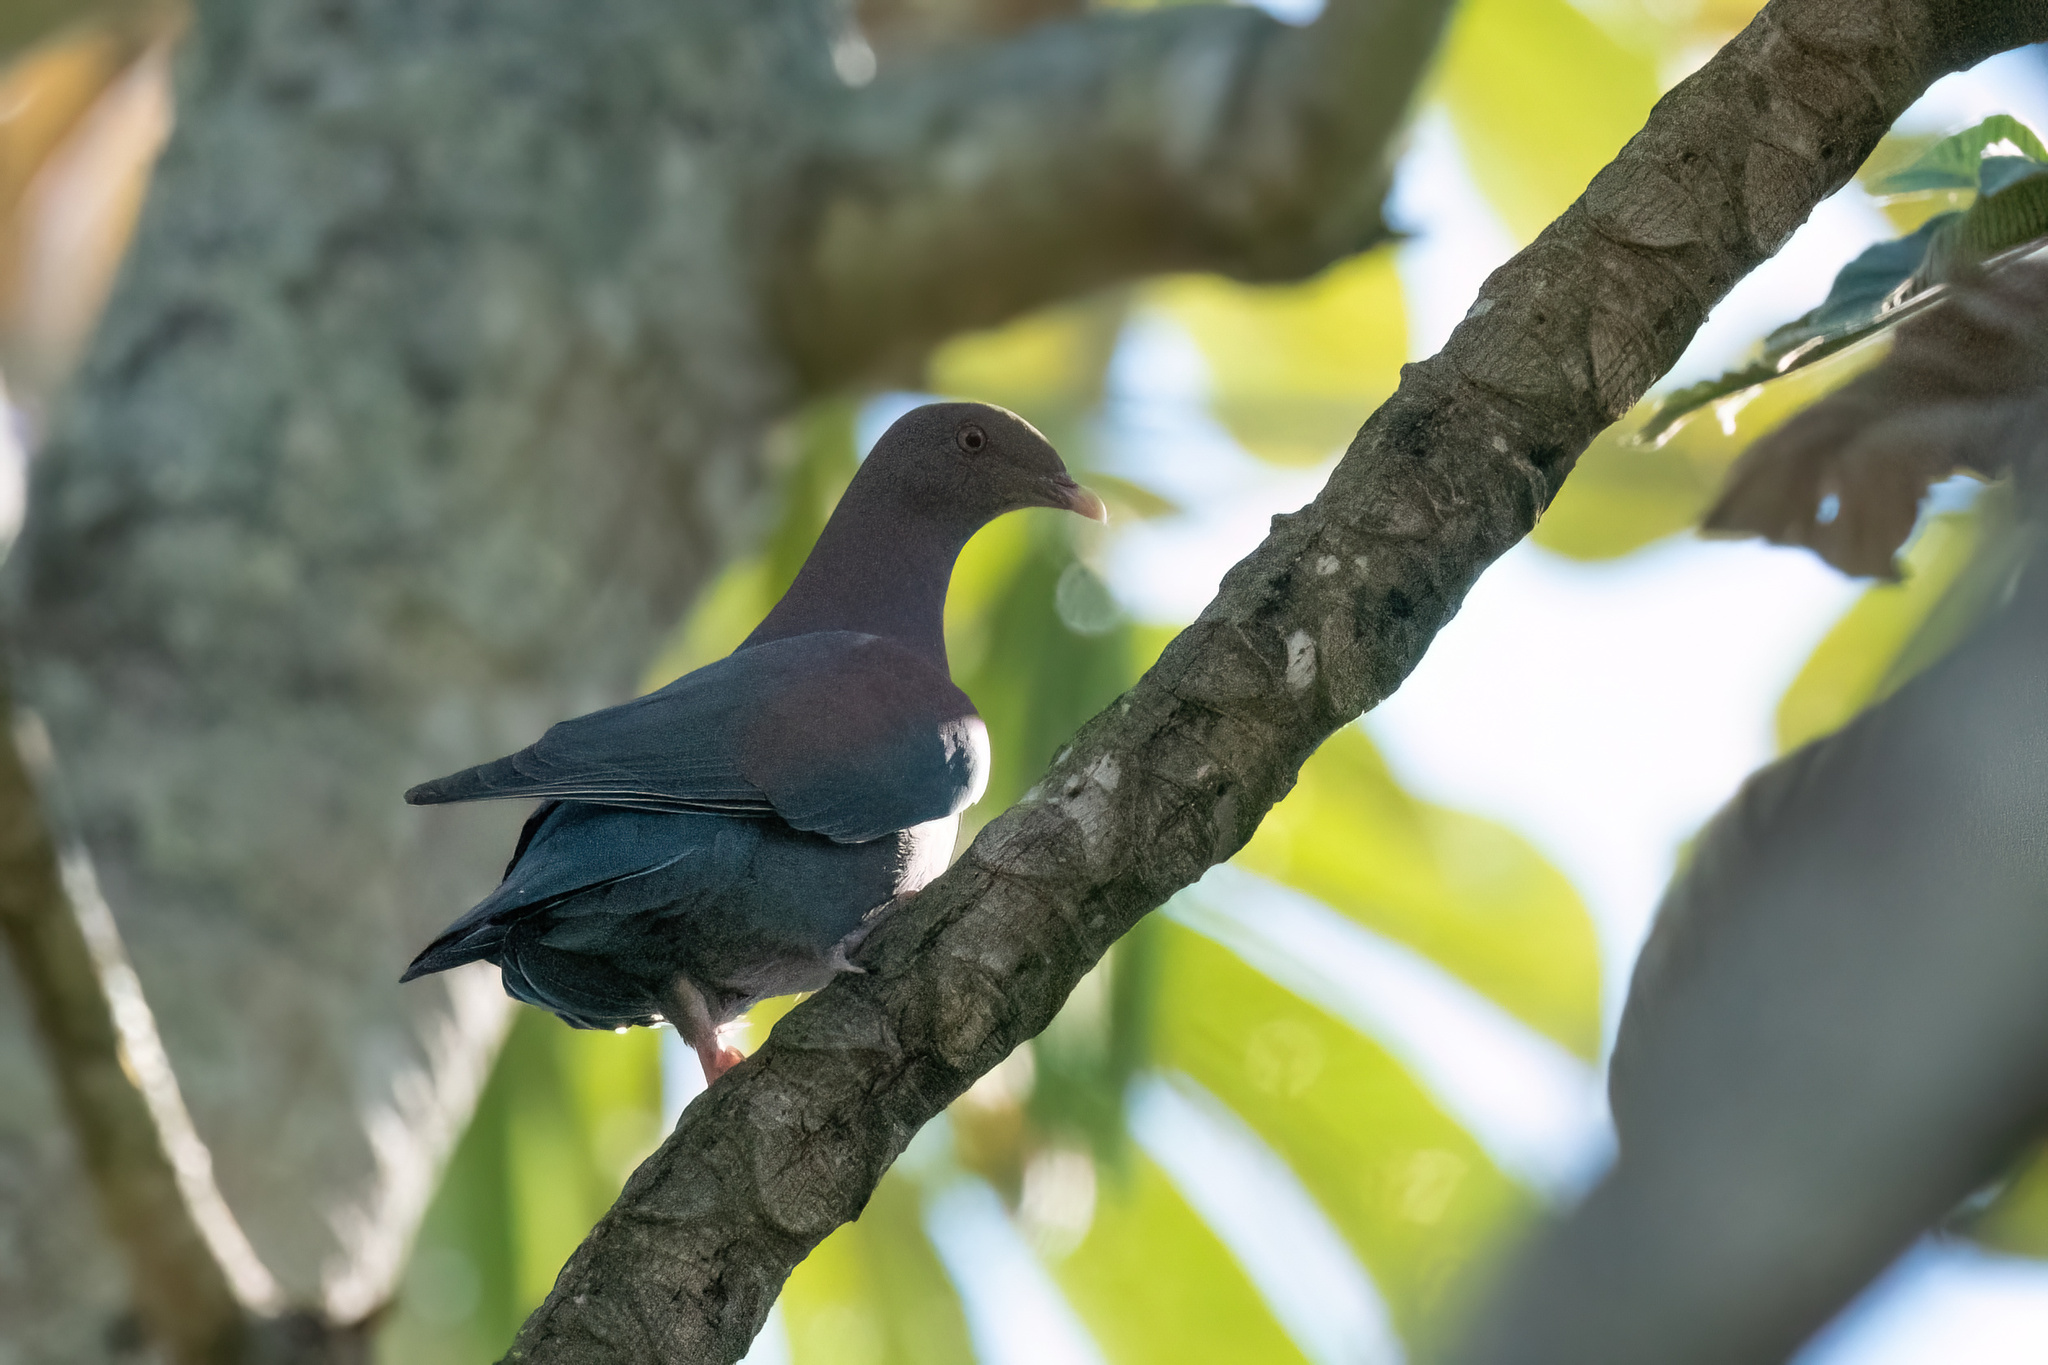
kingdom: Animalia
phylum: Chordata
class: Aves
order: Columbiformes
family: Columbidae
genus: Patagioenas
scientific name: Patagioenas flavirostris
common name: Red-billed pigeon
